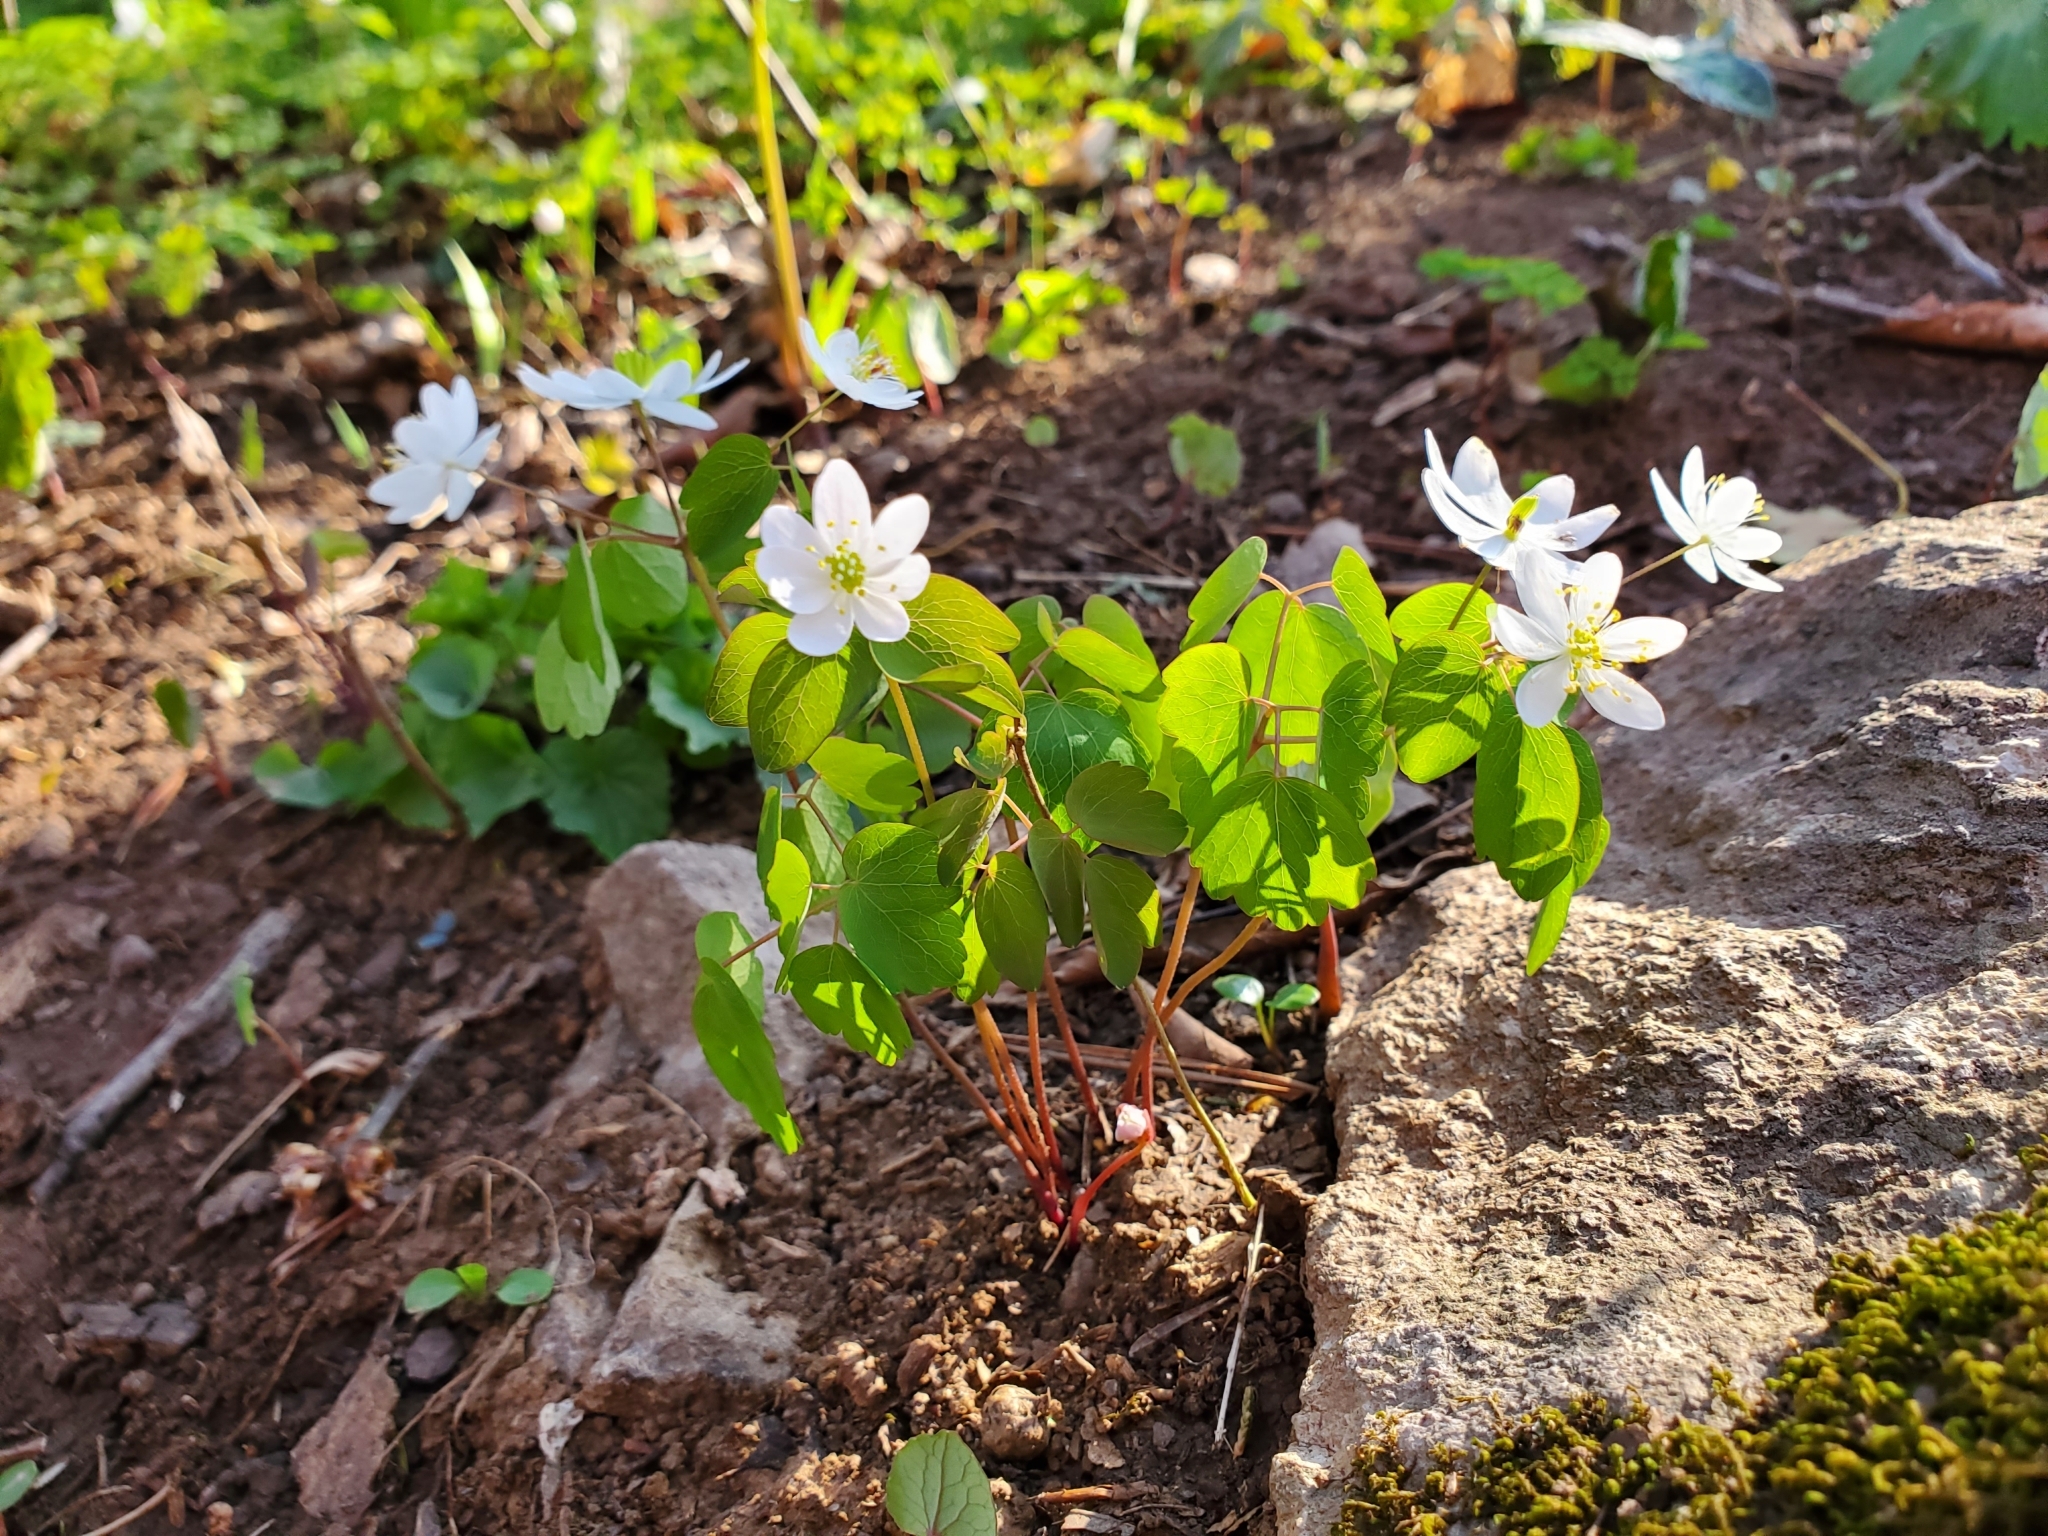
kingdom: Plantae
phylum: Tracheophyta
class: Magnoliopsida
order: Ranunculales
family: Ranunculaceae
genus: Thalictrum
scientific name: Thalictrum thalictroides
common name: Rue-anemone
